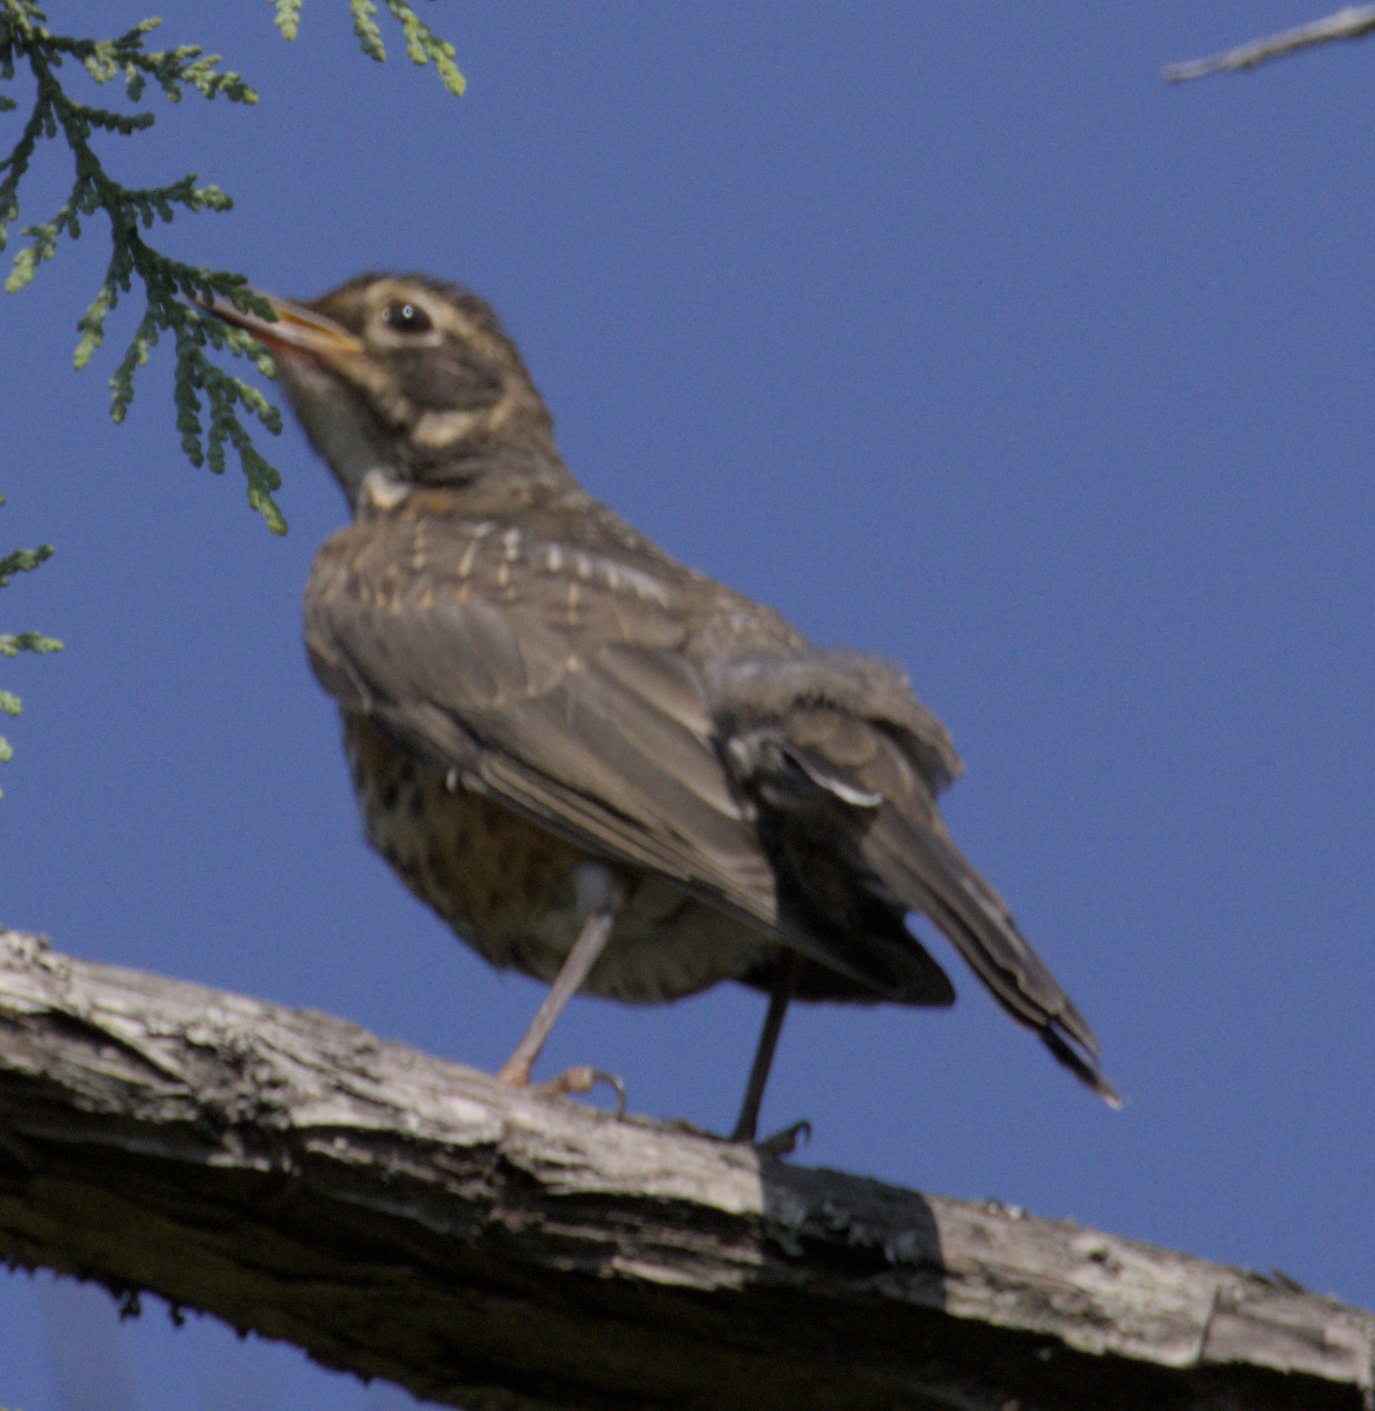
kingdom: Animalia
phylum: Chordata
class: Aves
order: Passeriformes
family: Turdidae
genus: Turdus
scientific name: Turdus migratorius
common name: American robin
